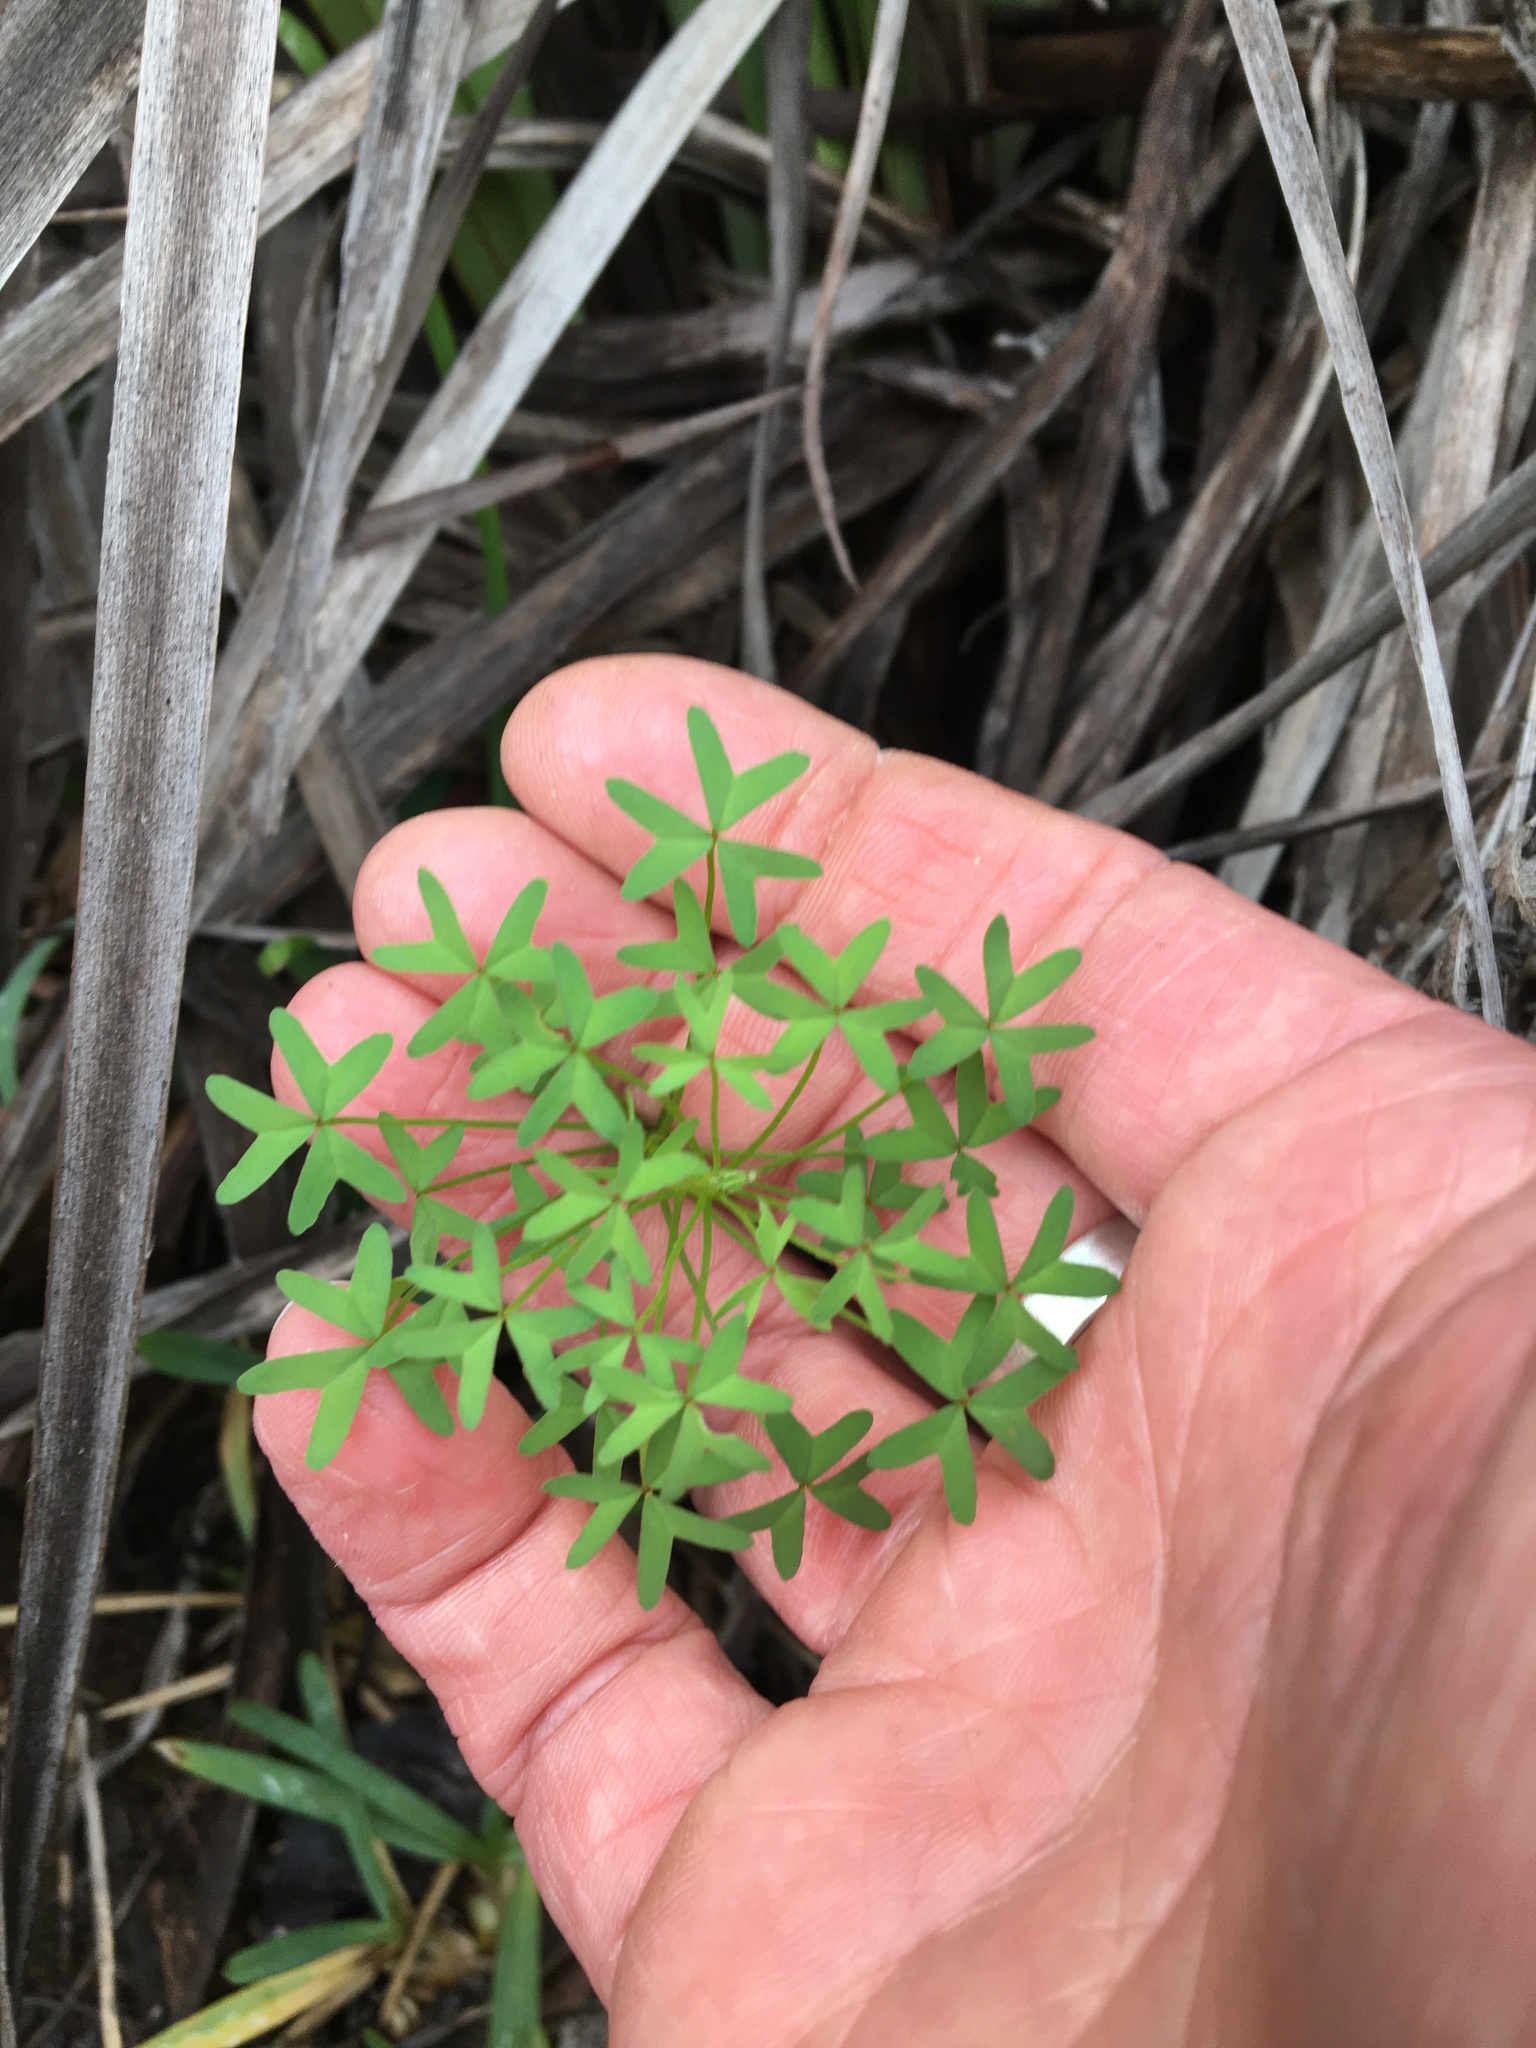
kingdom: Plantae
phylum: Tracheophyta
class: Magnoliopsida
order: Oxalidales
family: Oxalidaceae
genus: Oxalis
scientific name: Oxalis
